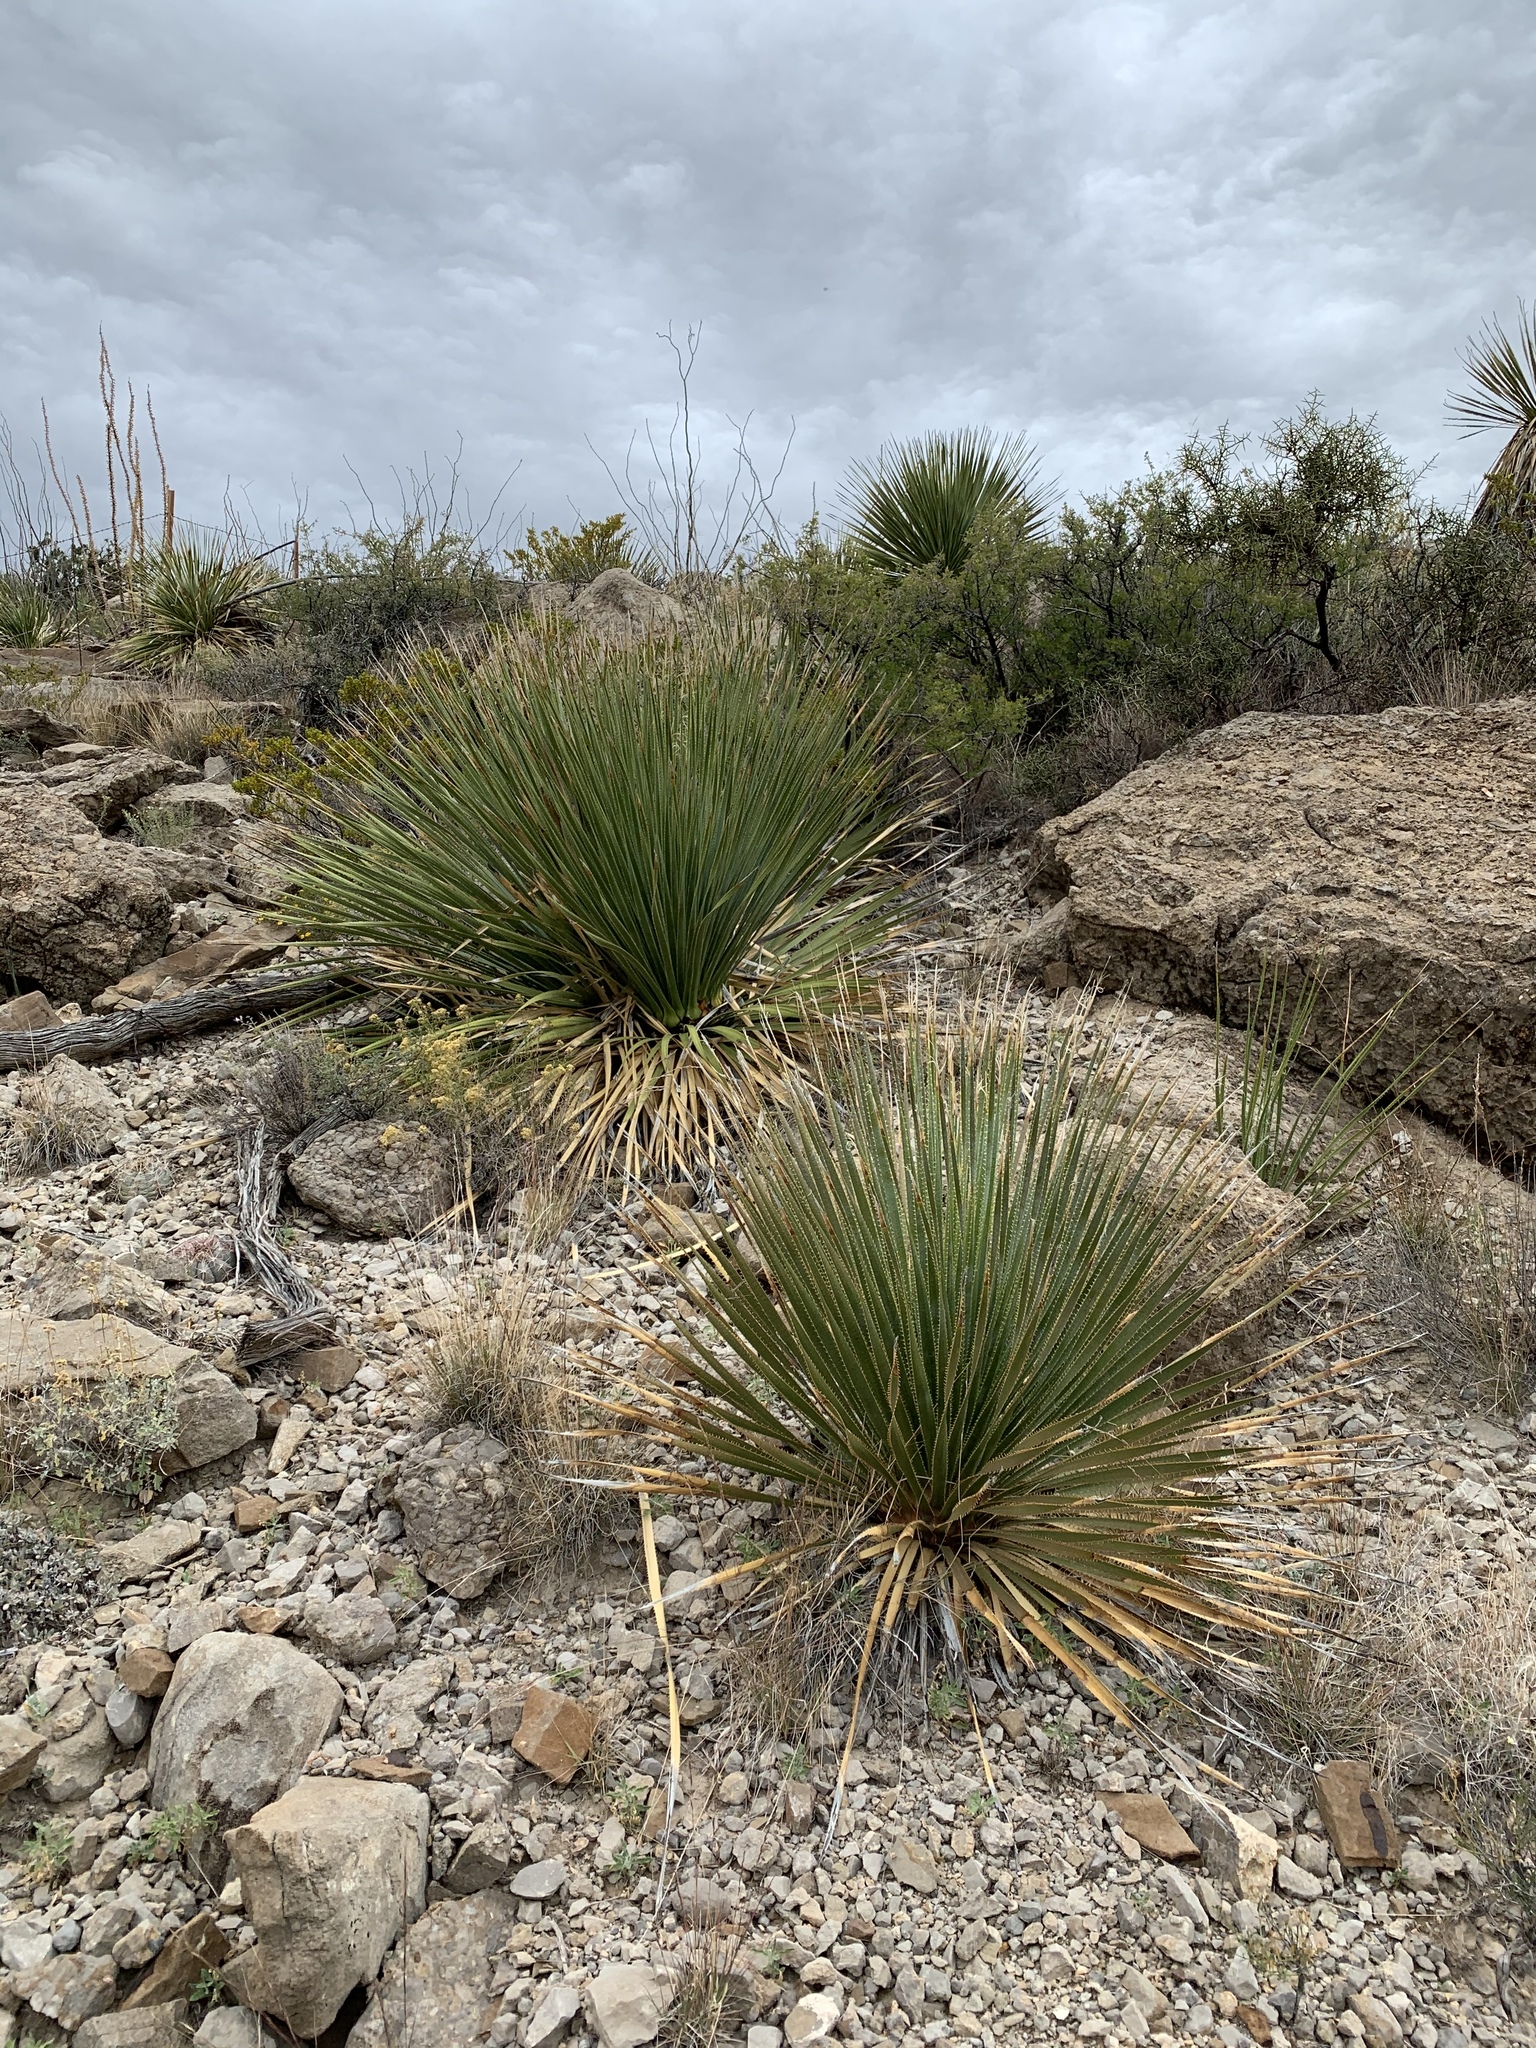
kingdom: Plantae
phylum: Tracheophyta
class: Liliopsida
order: Asparagales
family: Asparagaceae
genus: Dasylirion
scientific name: Dasylirion wheeleri
